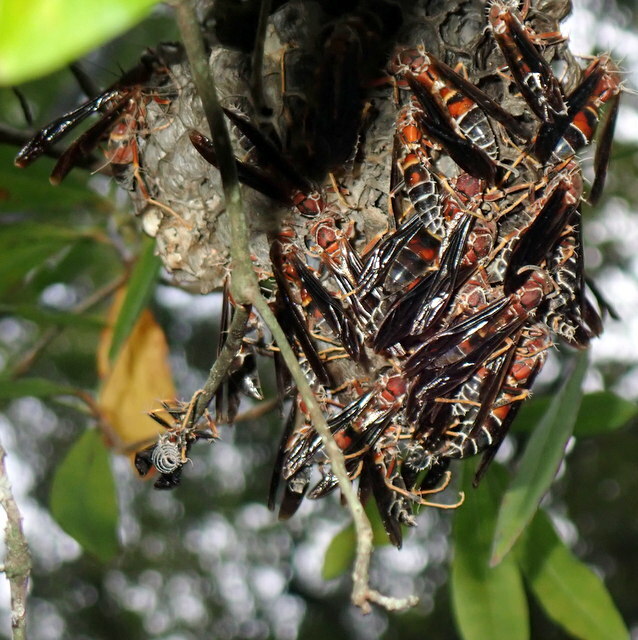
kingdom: Animalia
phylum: Arthropoda
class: Insecta
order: Hymenoptera
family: Eumenidae
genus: Polistes
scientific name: Polistes bahamensis
